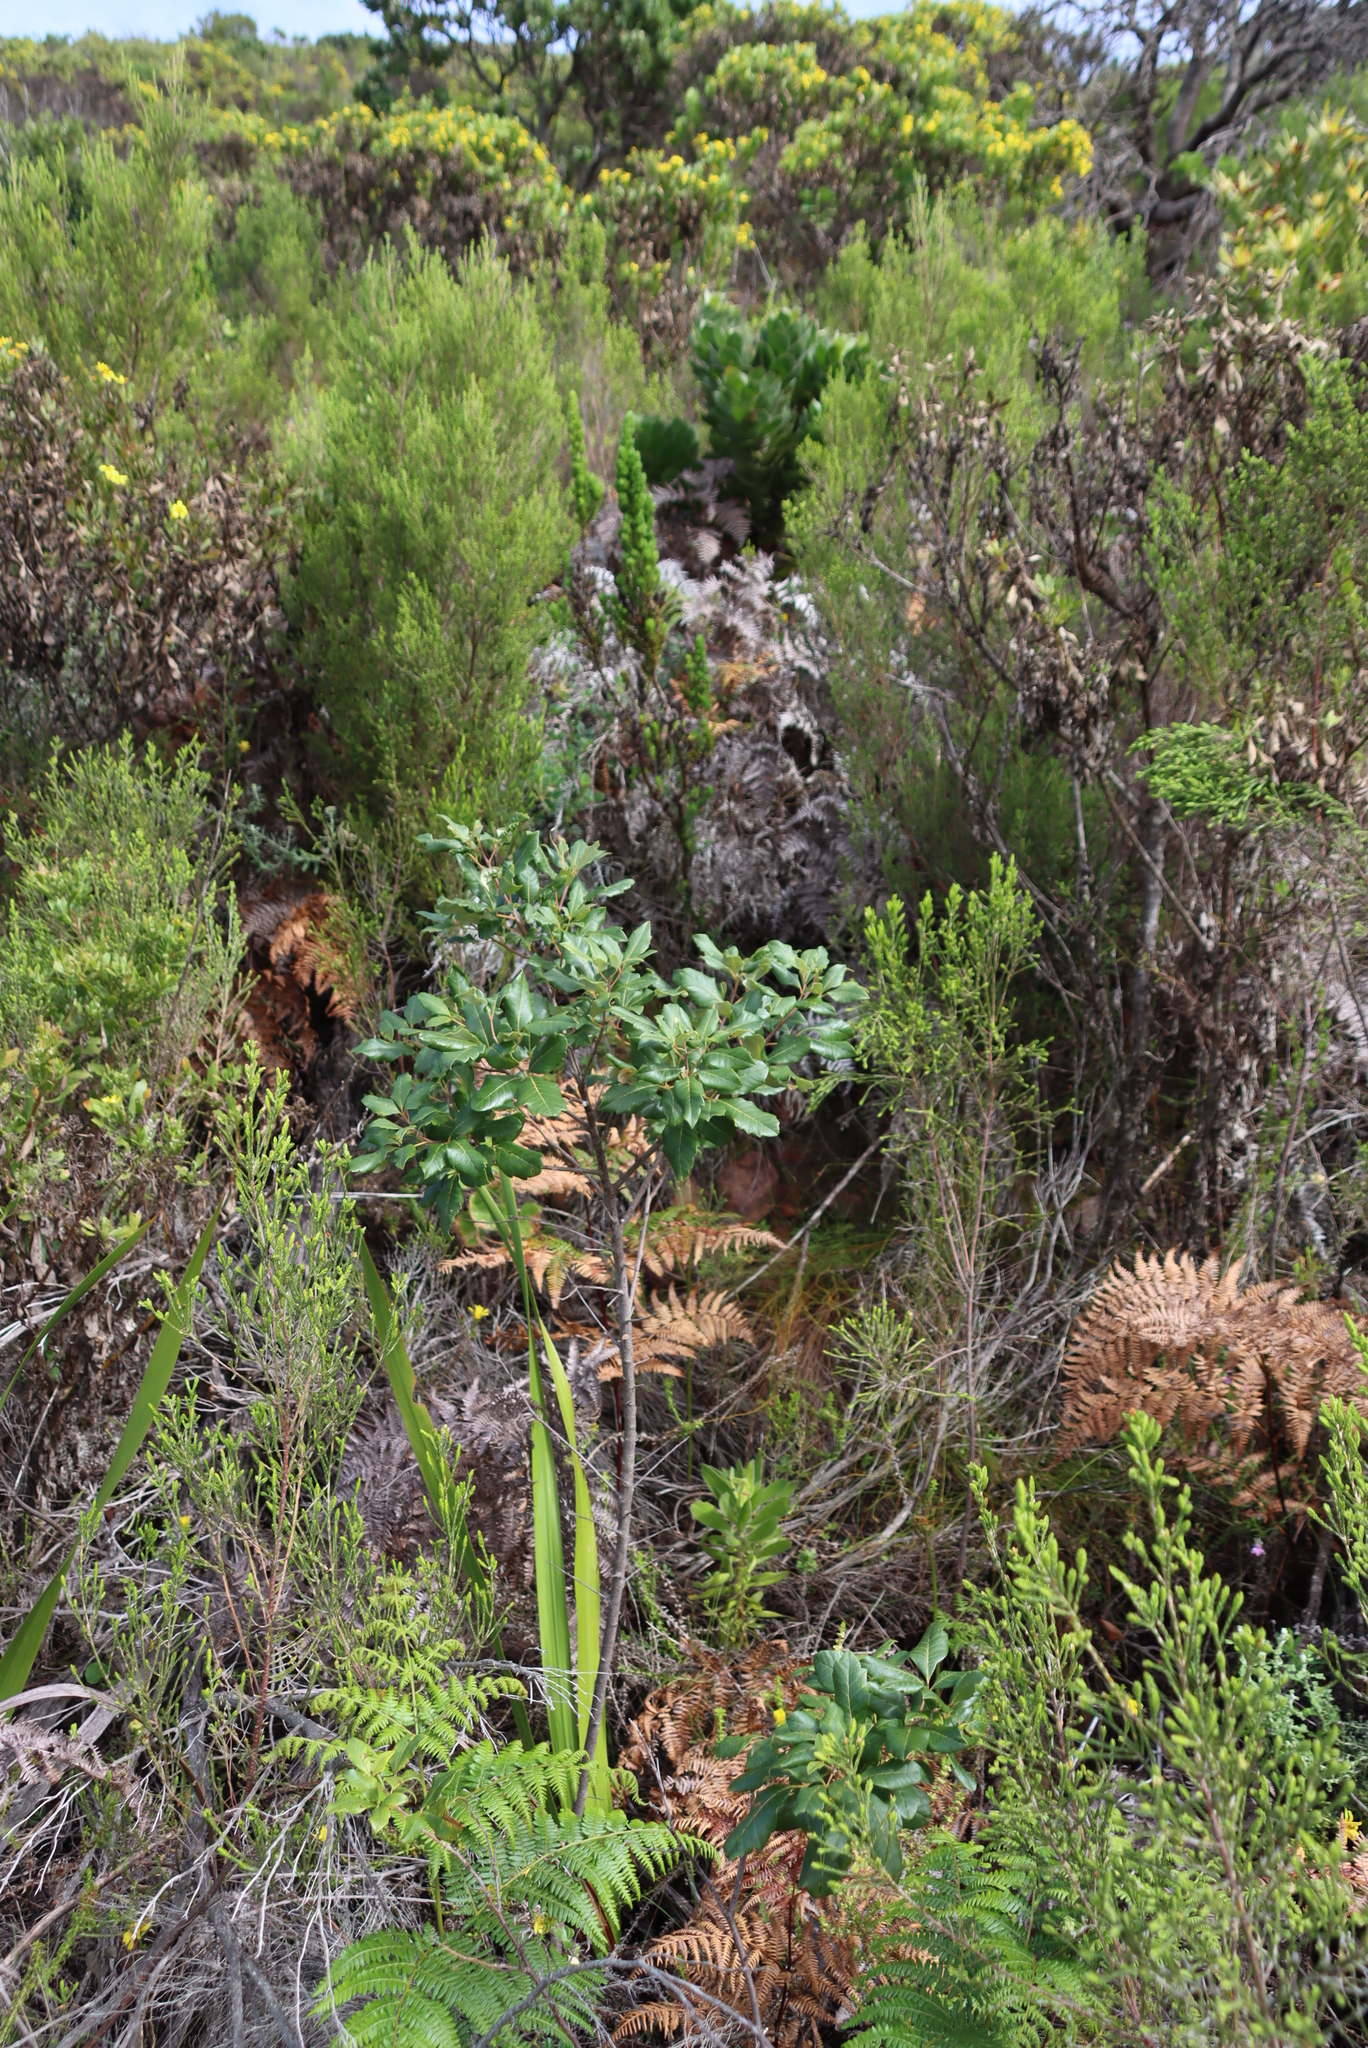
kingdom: Plantae
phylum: Tracheophyta
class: Magnoliopsida
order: Sapindales
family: Anacardiaceae
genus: Searsia
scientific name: Searsia tomentosa
